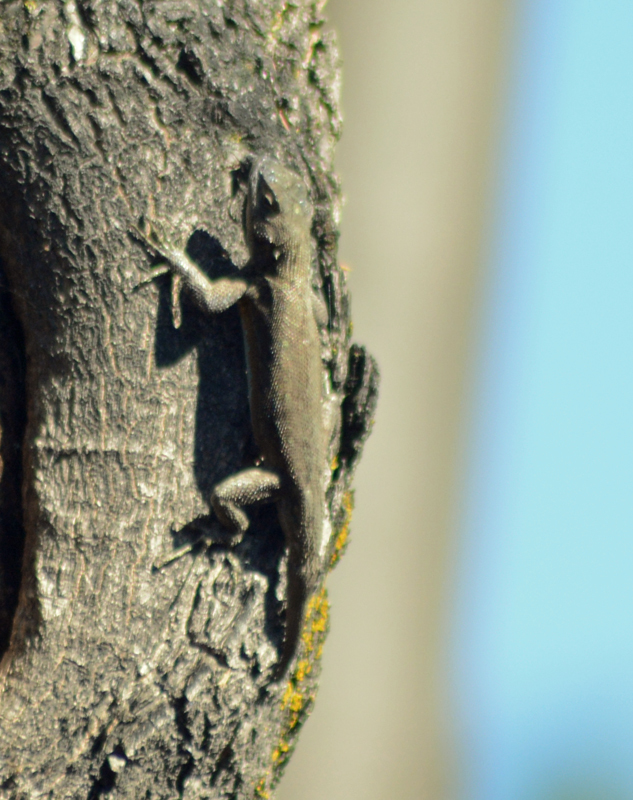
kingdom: Animalia
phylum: Chordata
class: Squamata
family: Phrynosomatidae
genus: Sceloporus
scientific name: Sceloporus grammicus
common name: Mesquite lizard
